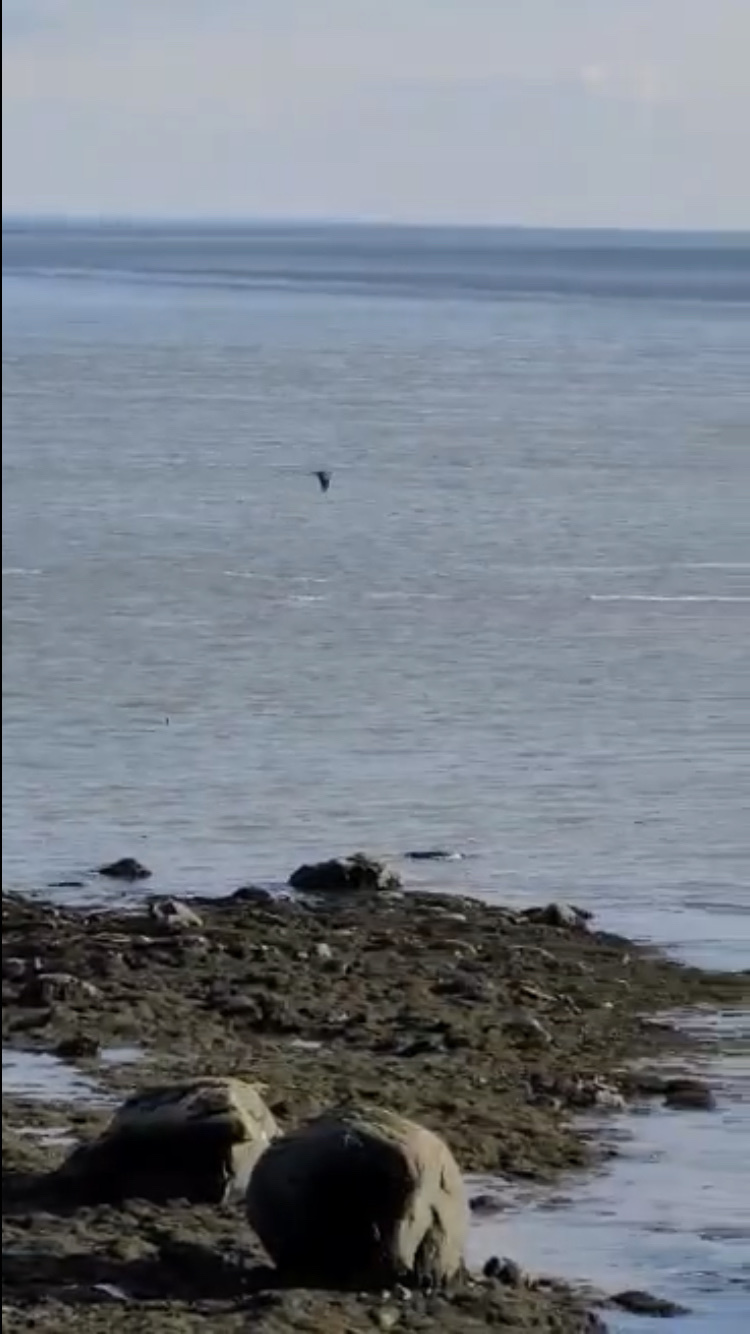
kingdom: Animalia
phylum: Chordata
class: Aves
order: Pelecaniformes
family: Ardeidae
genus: Ardea
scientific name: Ardea herodias
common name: Great blue heron
